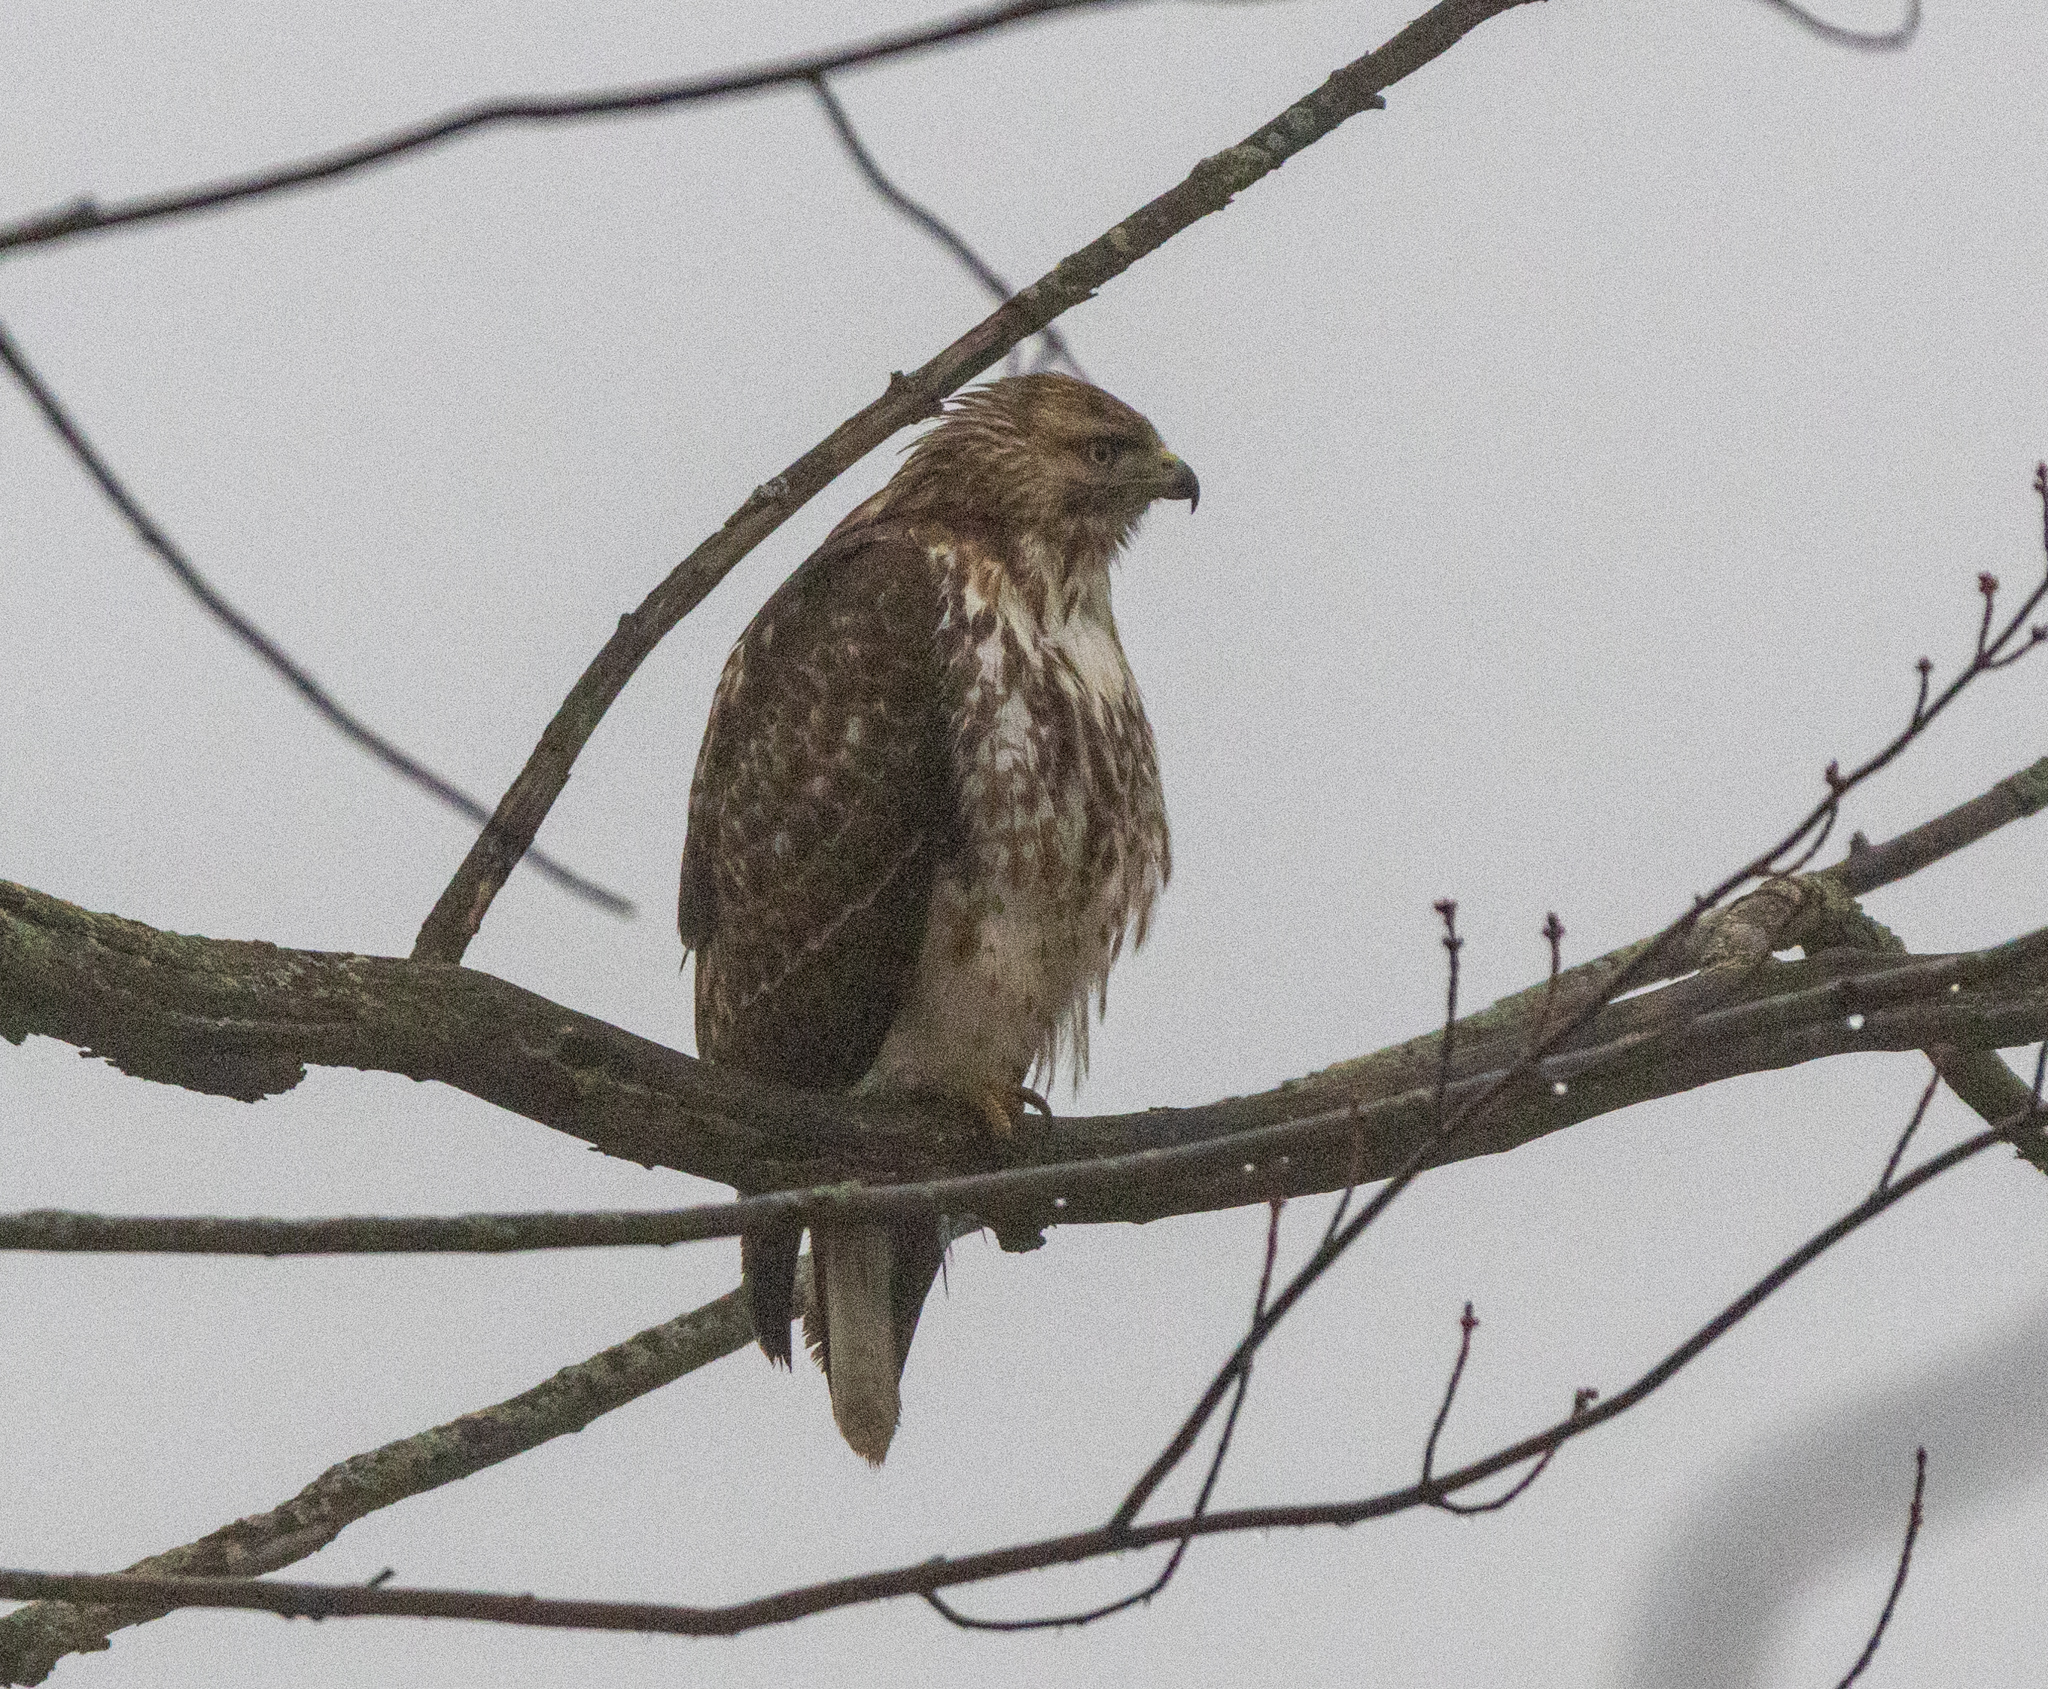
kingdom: Animalia
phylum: Chordata
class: Aves
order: Accipitriformes
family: Accipitridae
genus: Buteo
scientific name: Buteo jamaicensis
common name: Red-tailed hawk
